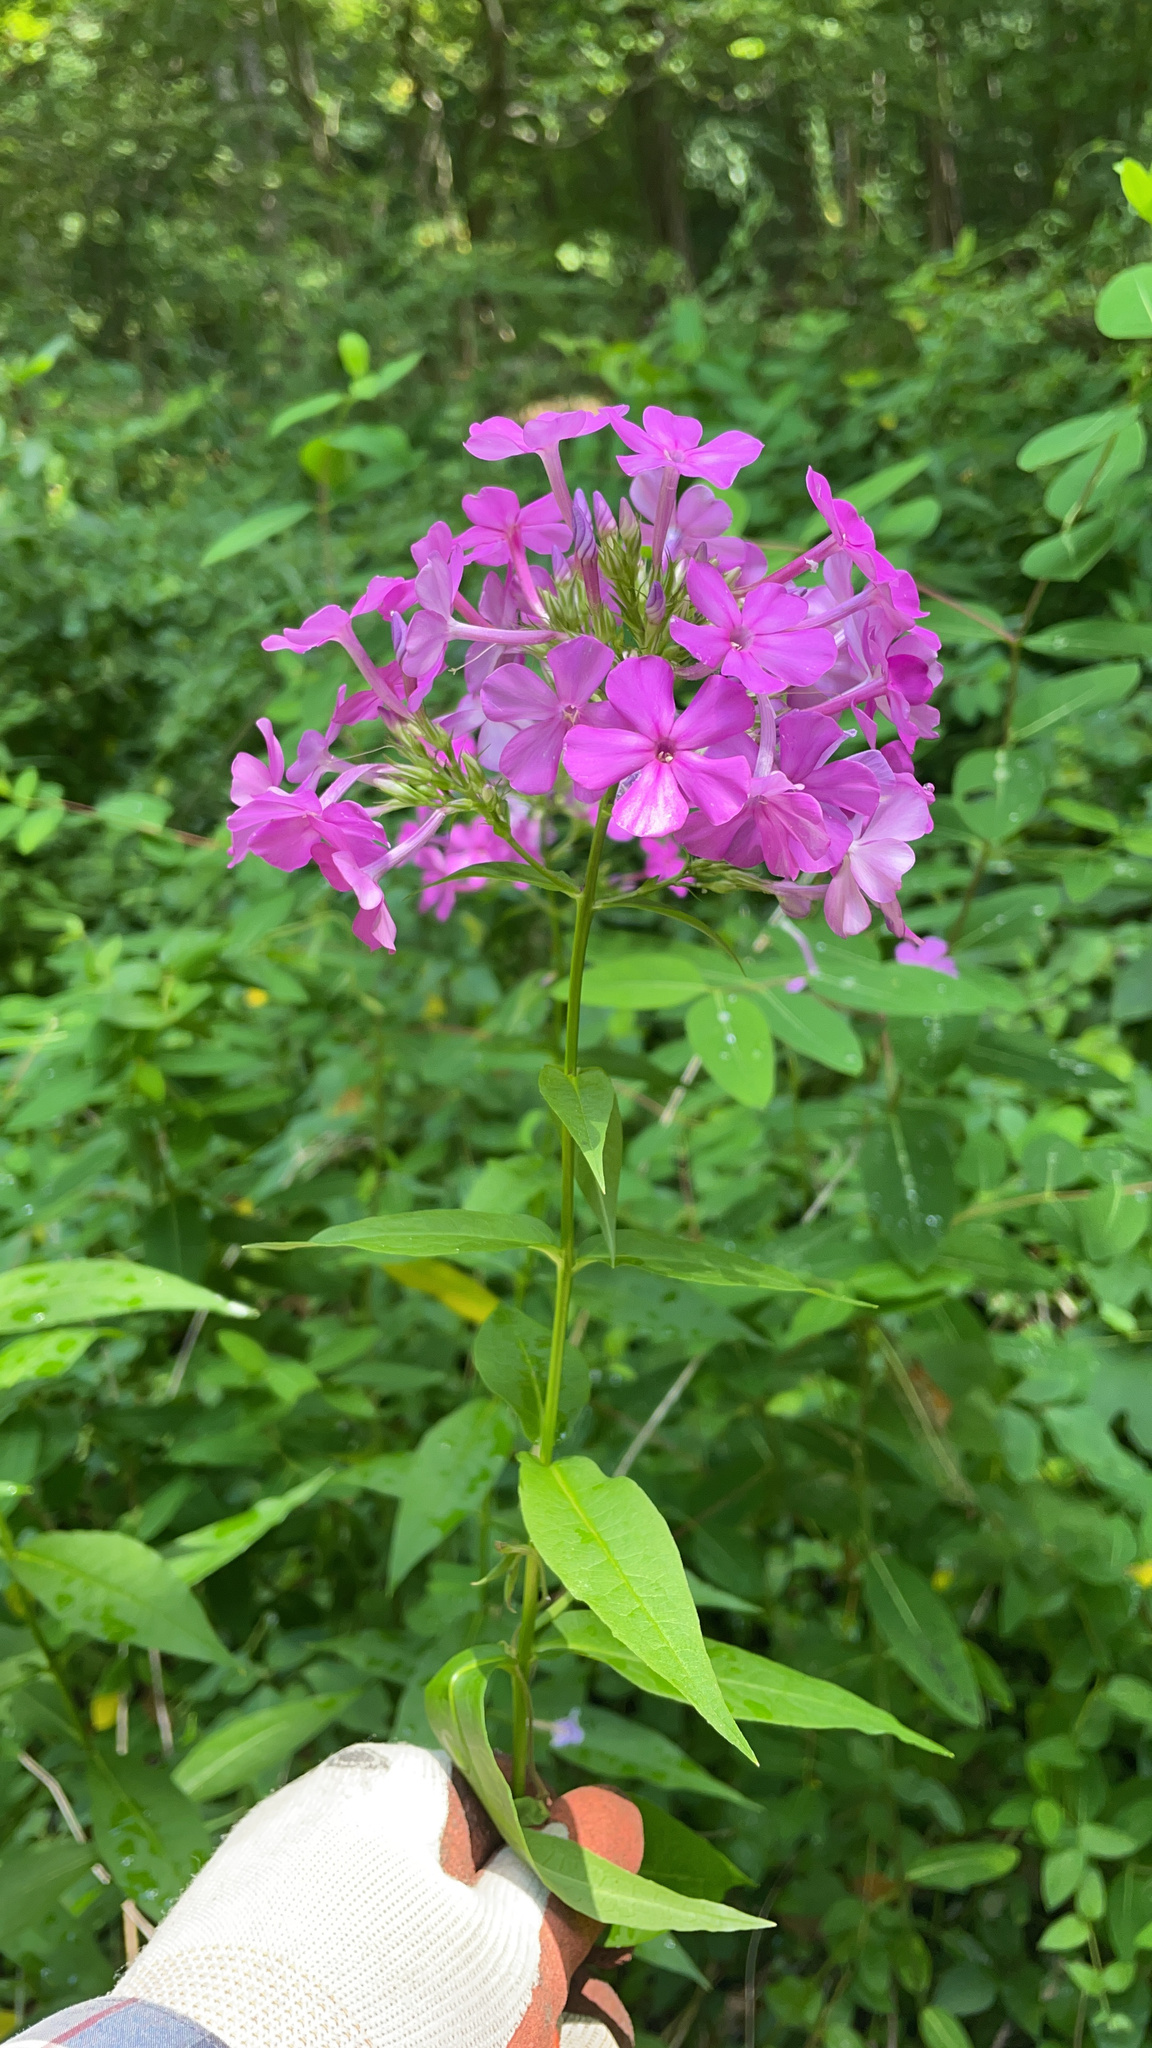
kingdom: Plantae
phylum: Tracheophyta
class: Magnoliopsida
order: Ericales
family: Polemoniaceae
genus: Phlox
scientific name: Phlox paniculata
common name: Fall phlox
